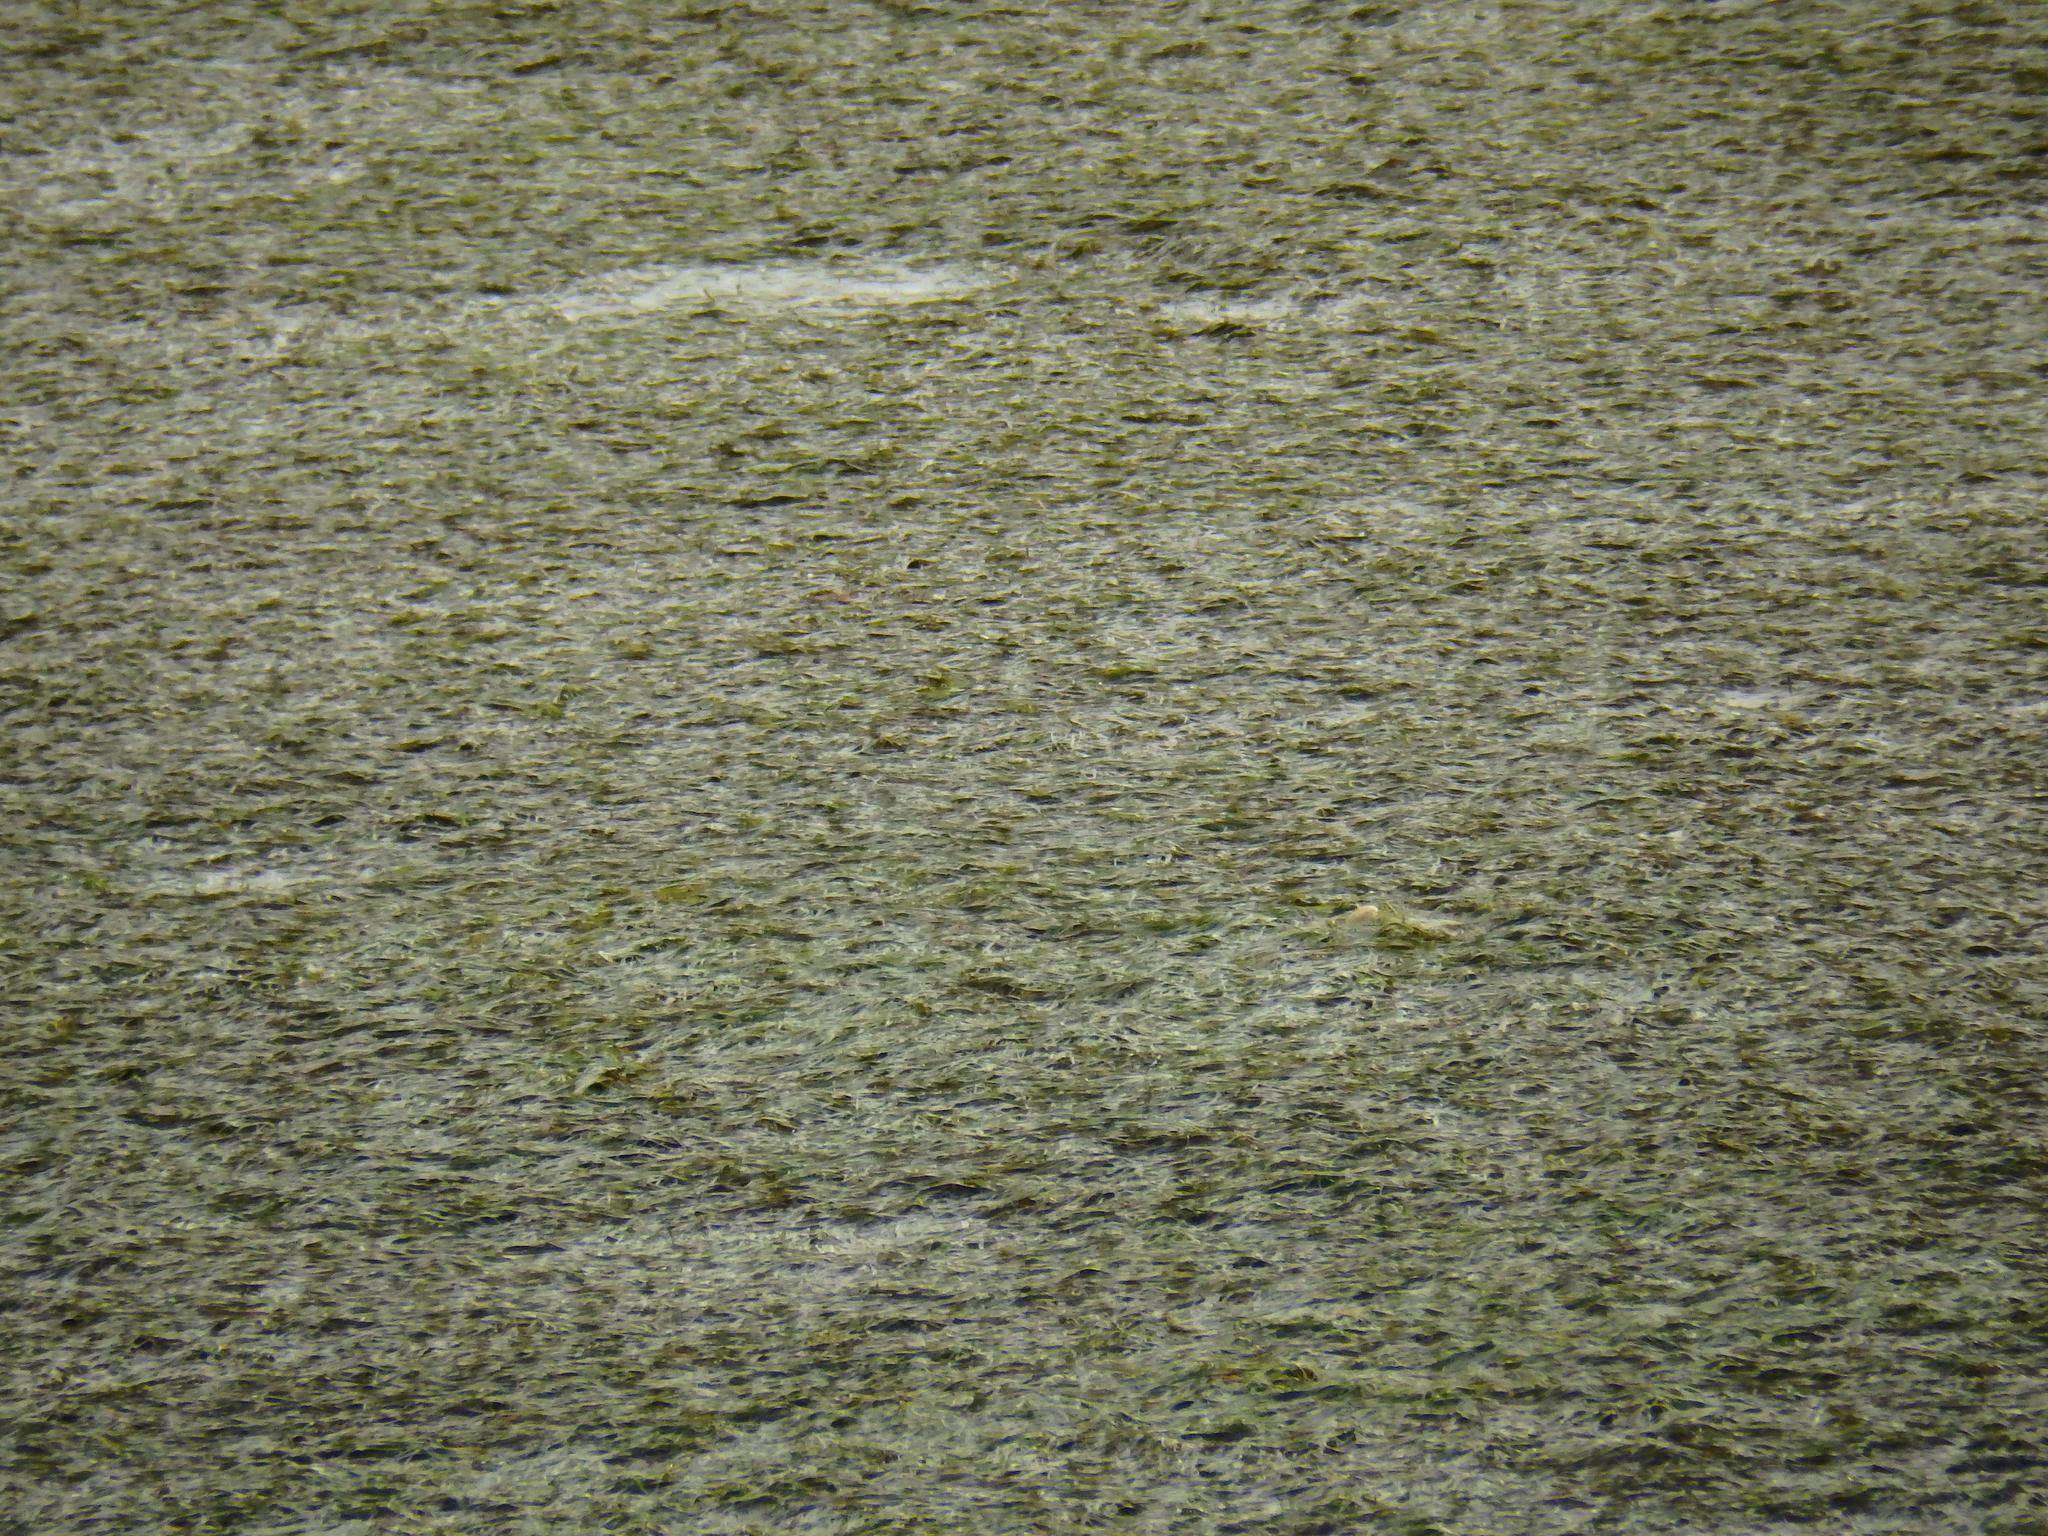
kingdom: Plantae
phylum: Tracheophyta
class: Liliopsida
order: Alismatales
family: Zosteraceae
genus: Zostera
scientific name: Zostera noltii
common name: Dwarf eelgrass
